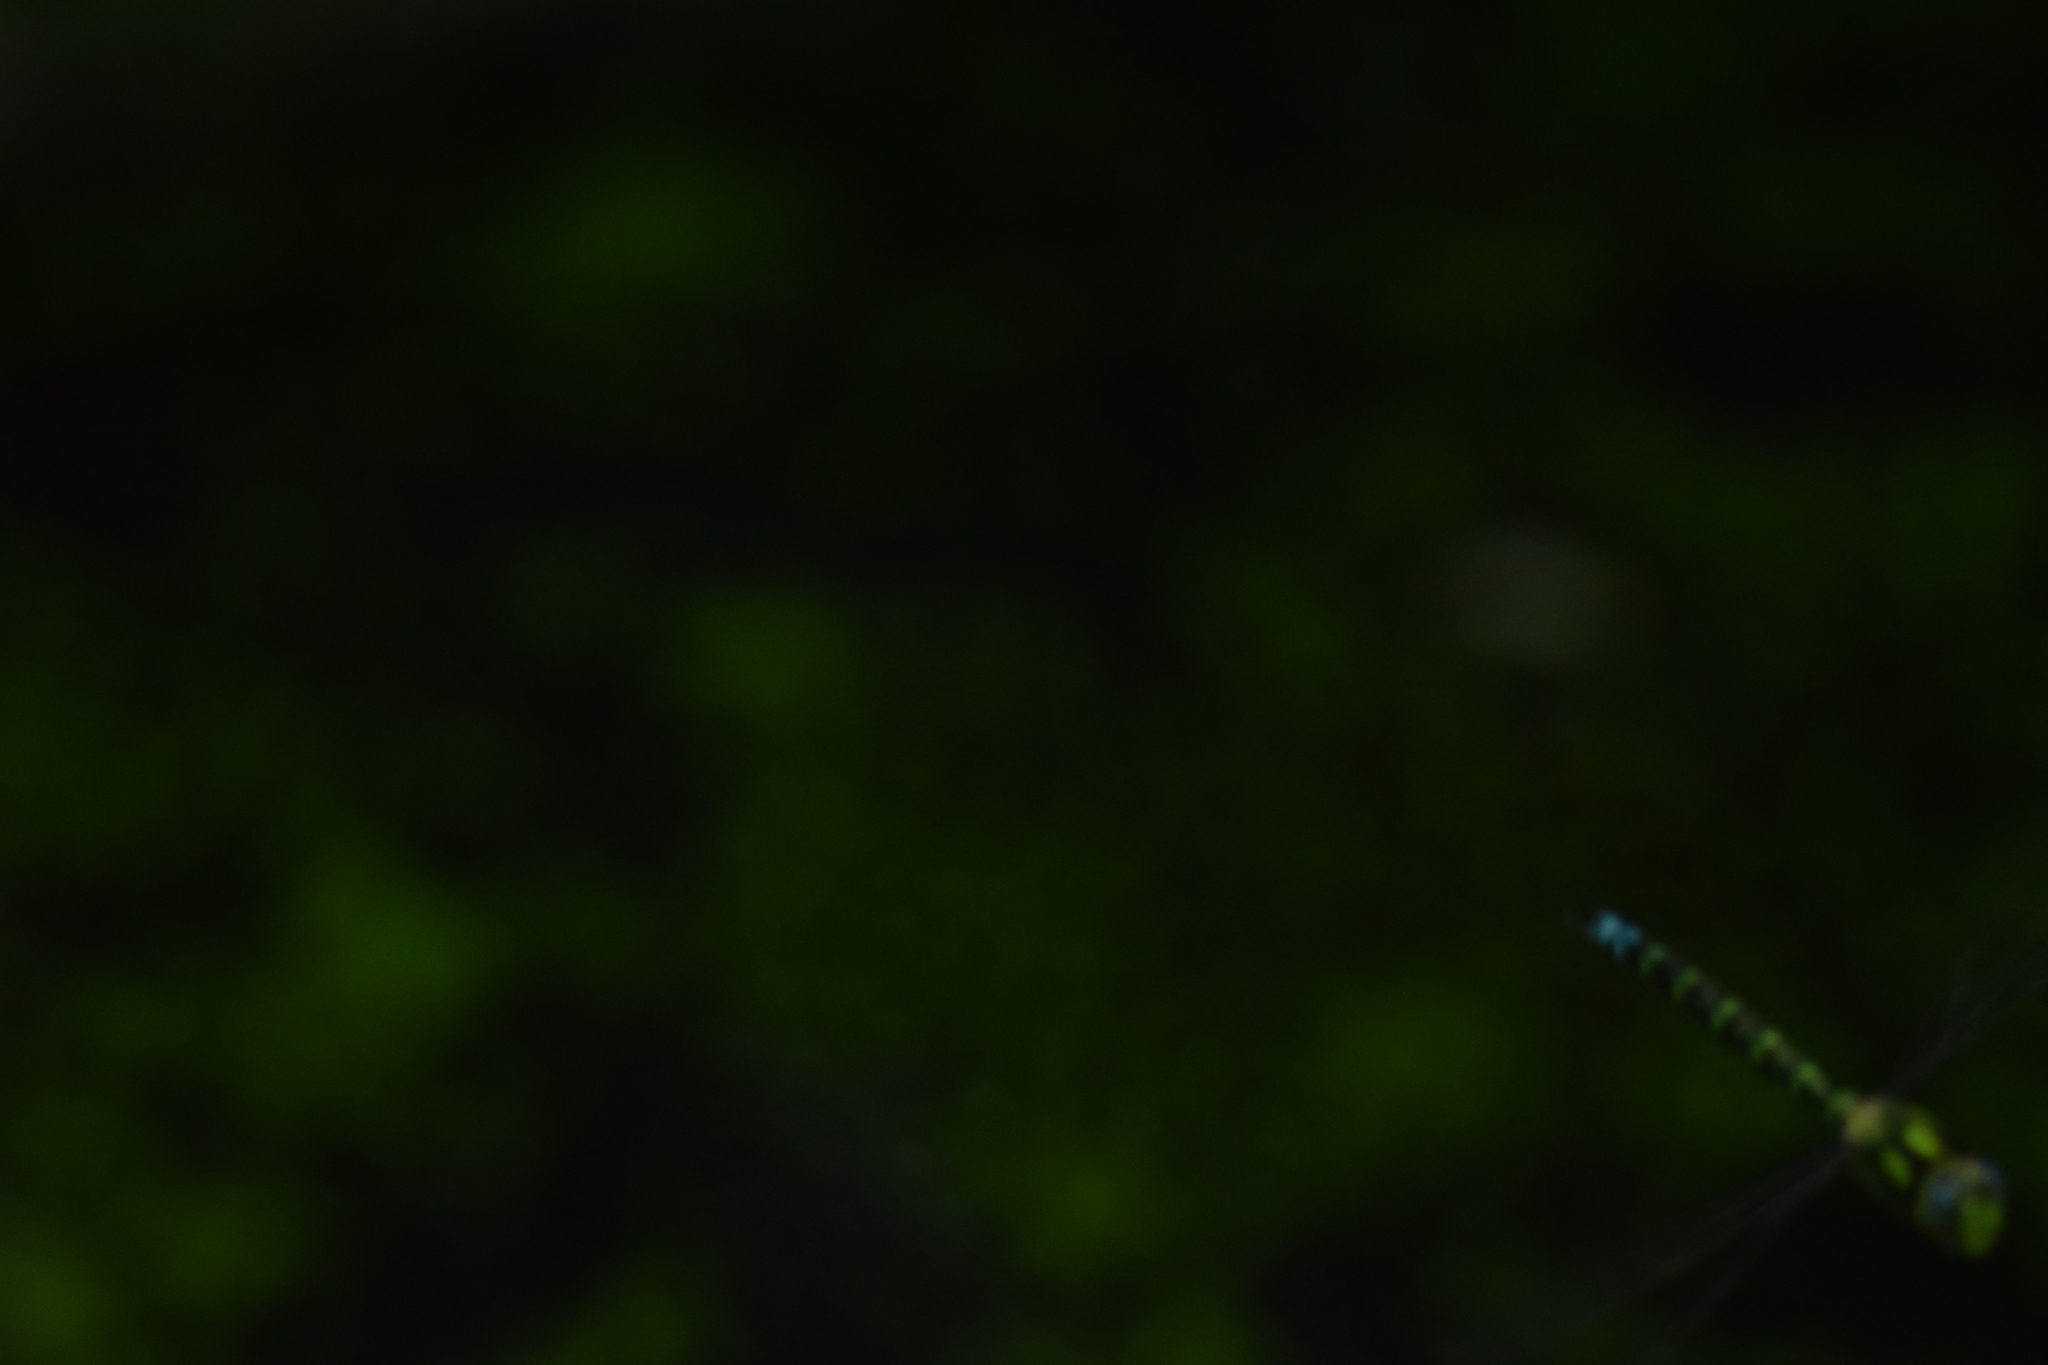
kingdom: Animalia
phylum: Arthropoda
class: Insecta
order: Odonata
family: Aeshnidae
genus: Aeshna
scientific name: Aeshna cyanea
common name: Southern hawker
